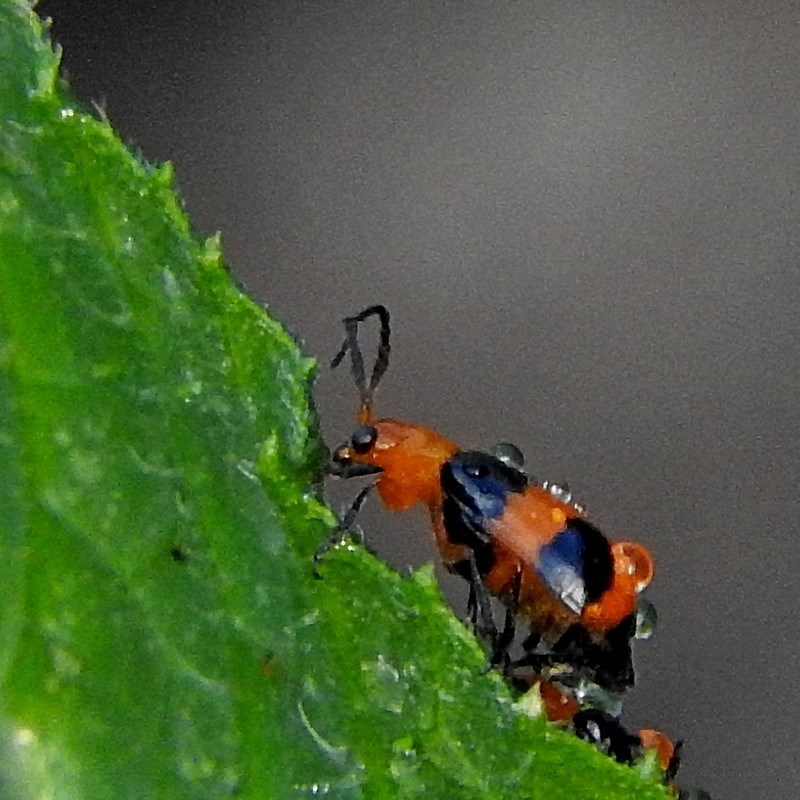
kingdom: Animalia
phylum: Arthropoda
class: Insecta
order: Coleoptera
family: Chrysomelidae
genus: Aulacophora
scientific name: Aulacophora
